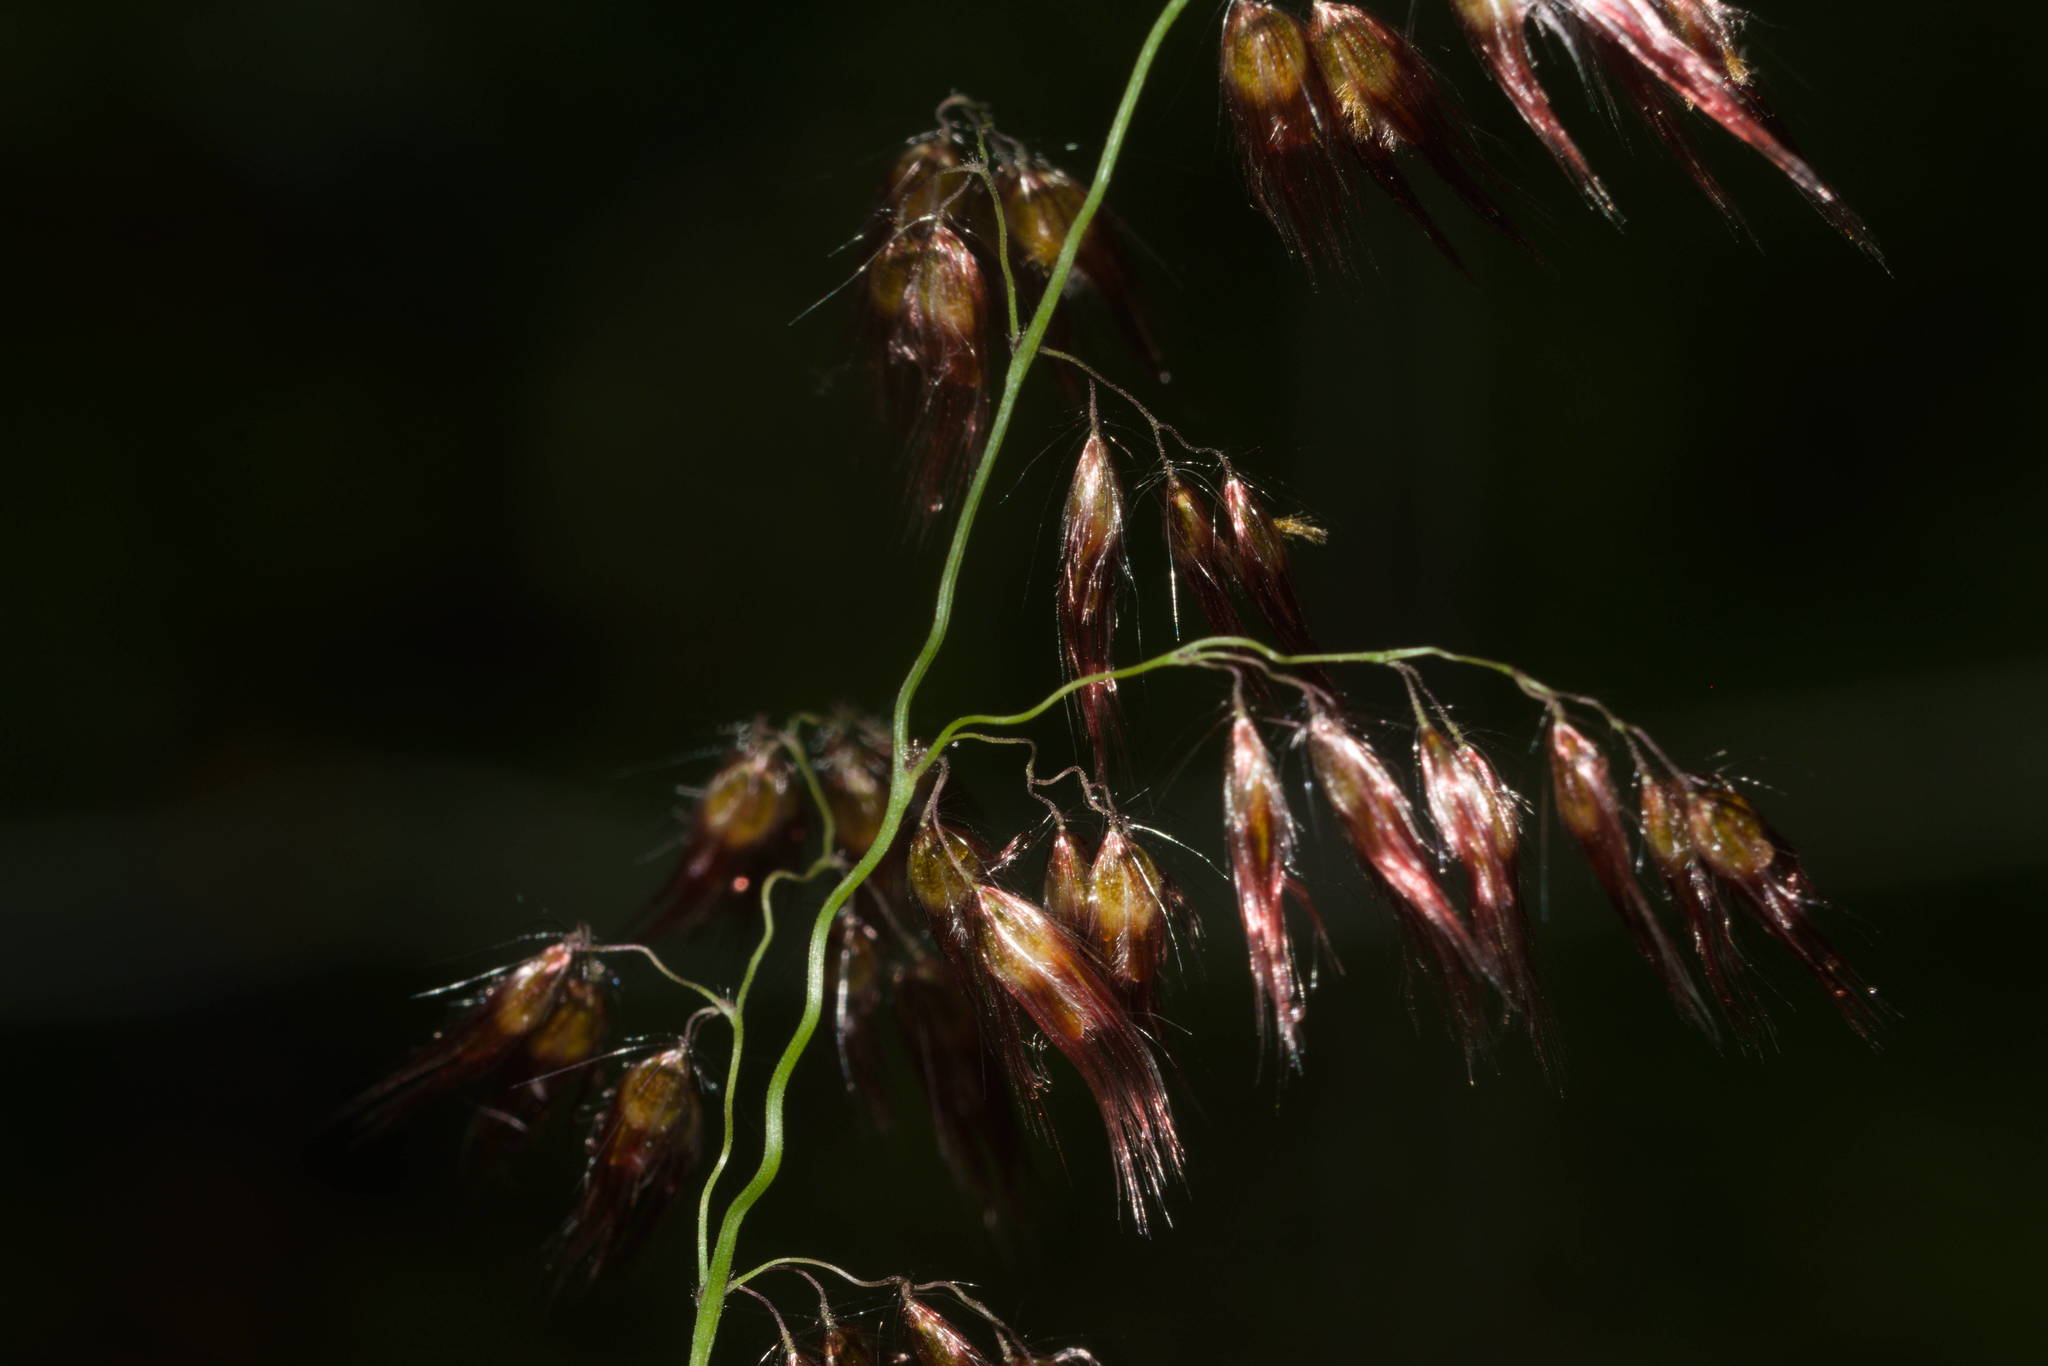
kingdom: Plantae
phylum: Tracheophyta
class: Liliopsida
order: Poales
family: Poaceae
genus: Melinis
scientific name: Melinis repens
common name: Rose natal grass
